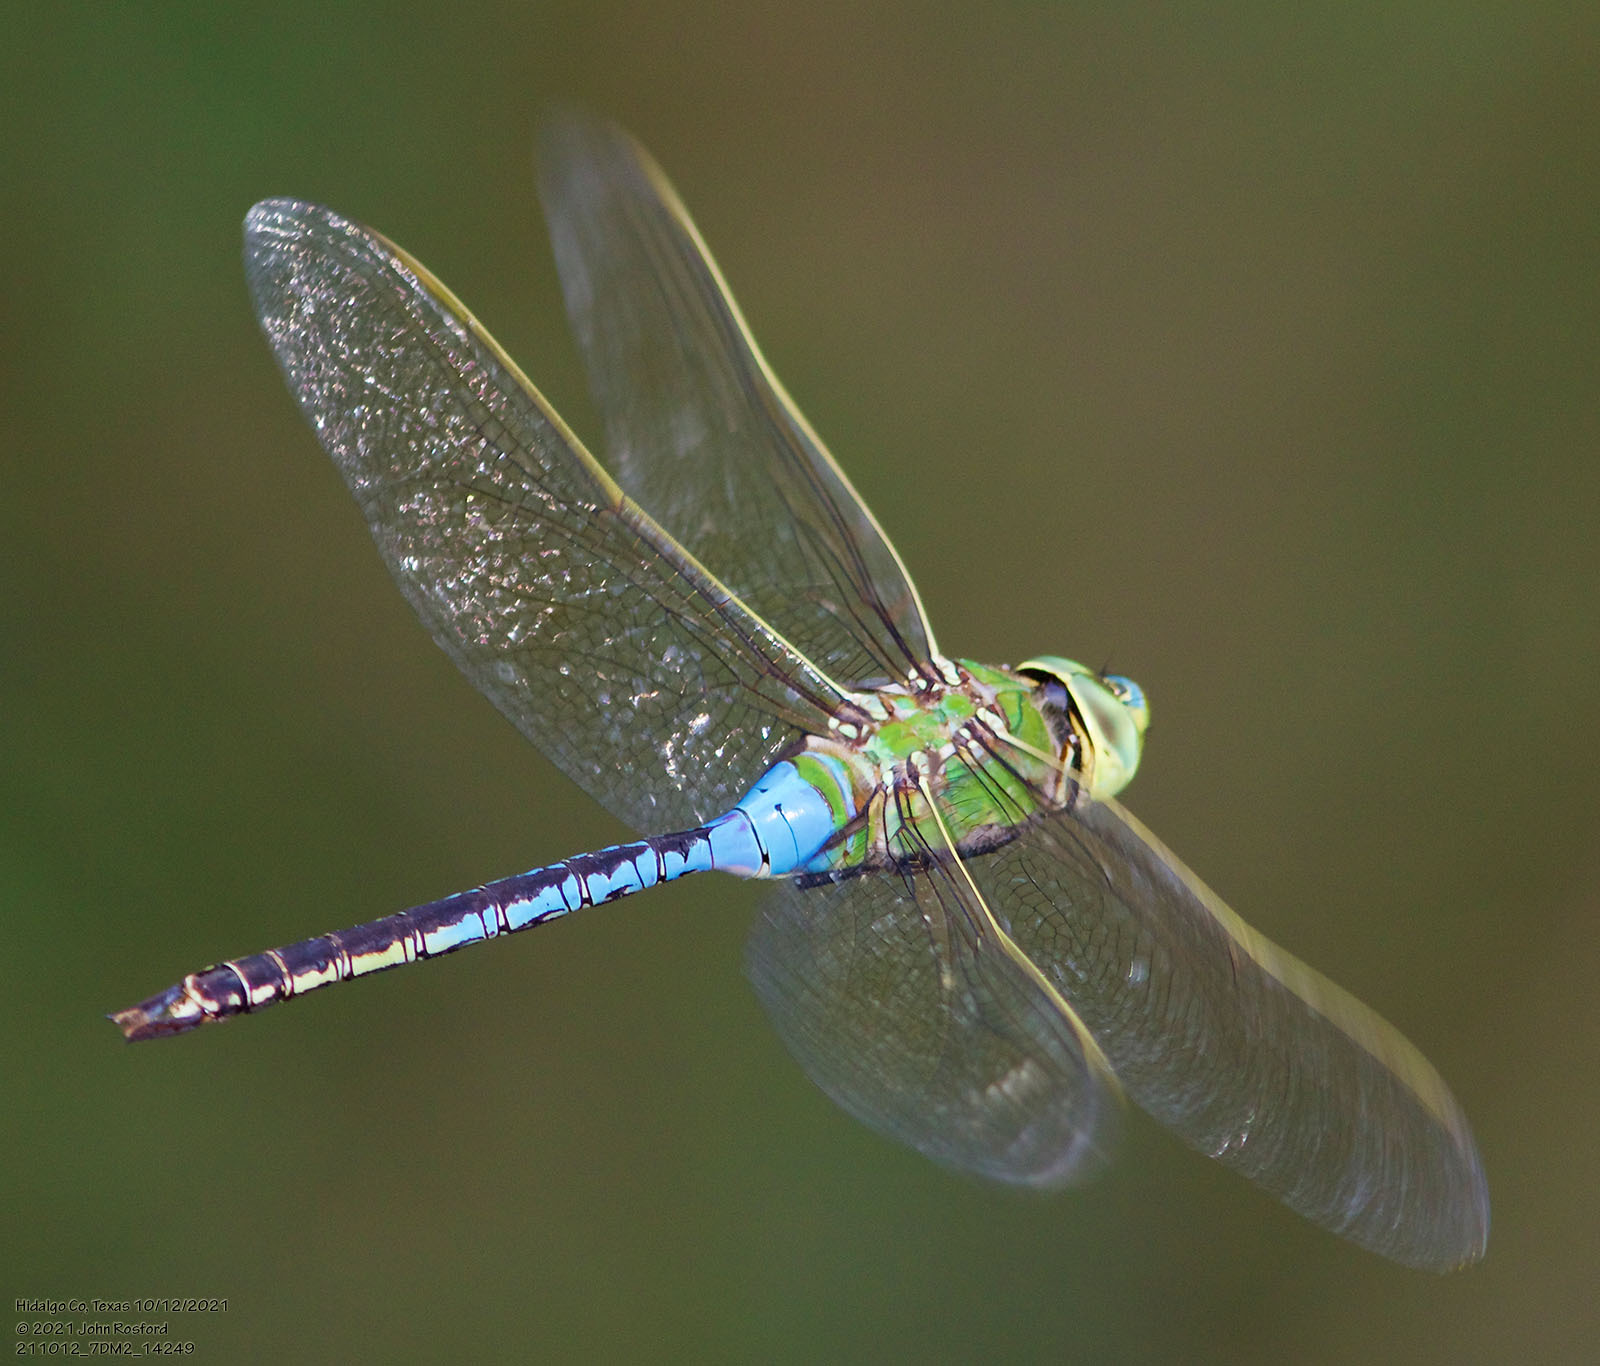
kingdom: Animalia
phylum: Arthropoda
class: Insecta
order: Odonata
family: Aeshnidae
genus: Anax
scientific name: Anax junius
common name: Common green darner
